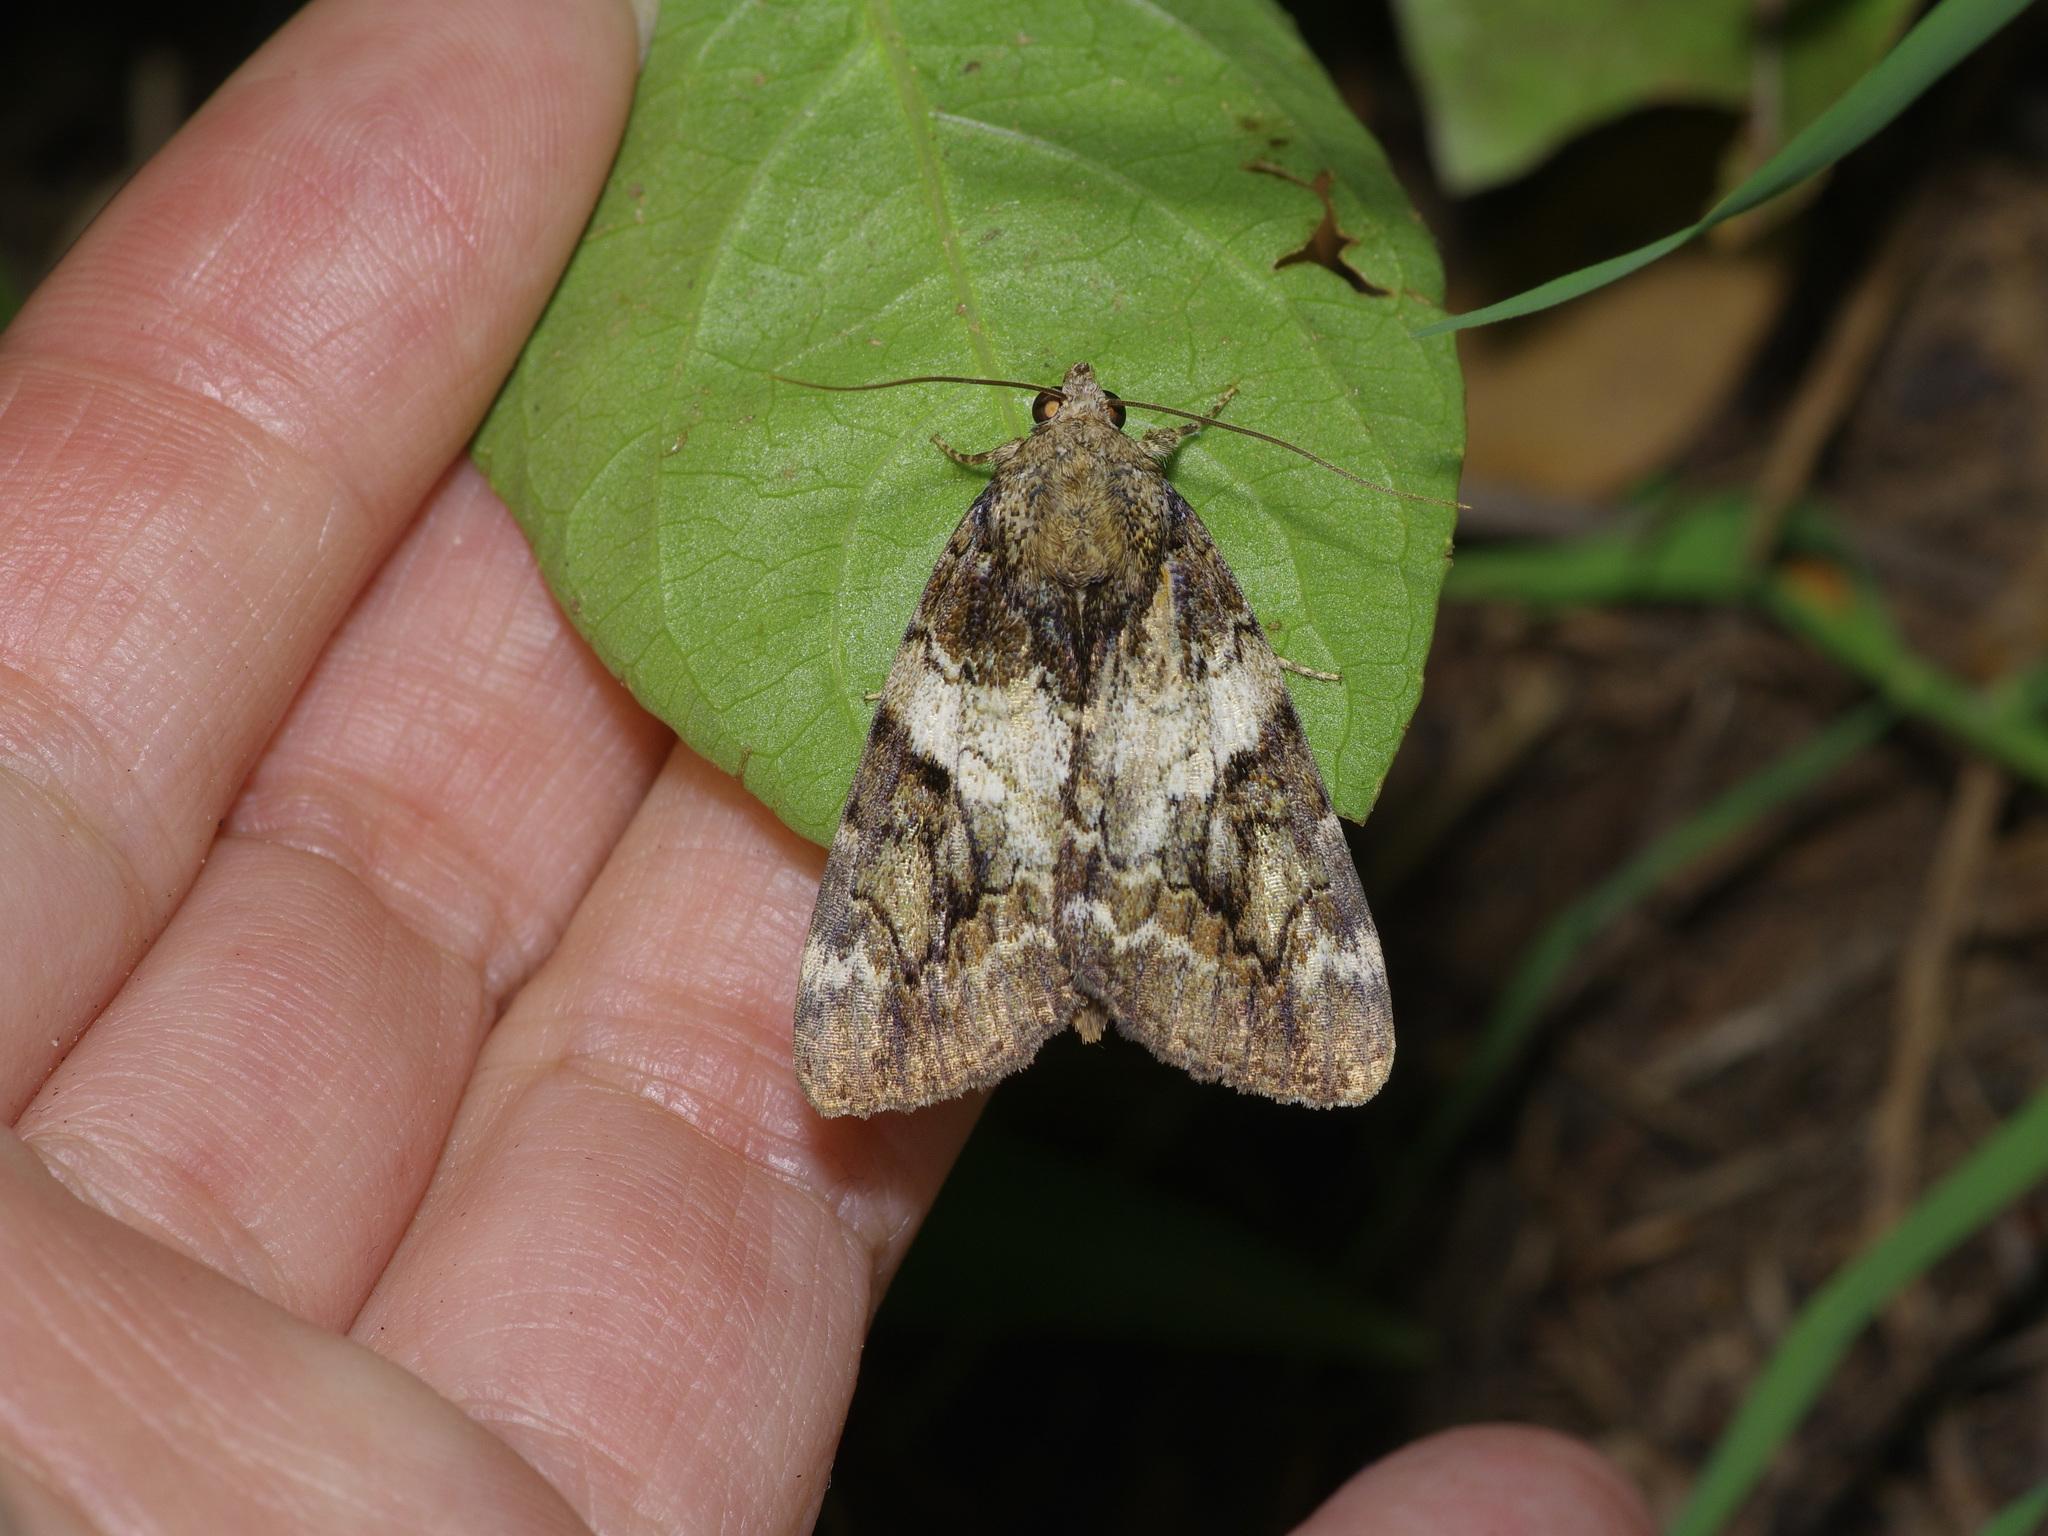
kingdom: Animalia
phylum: Arthropoda
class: Insecta
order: Lepidoptera
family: Erebidae
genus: Catocala
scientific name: Catocala micronympha
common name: Little nymph underwing
